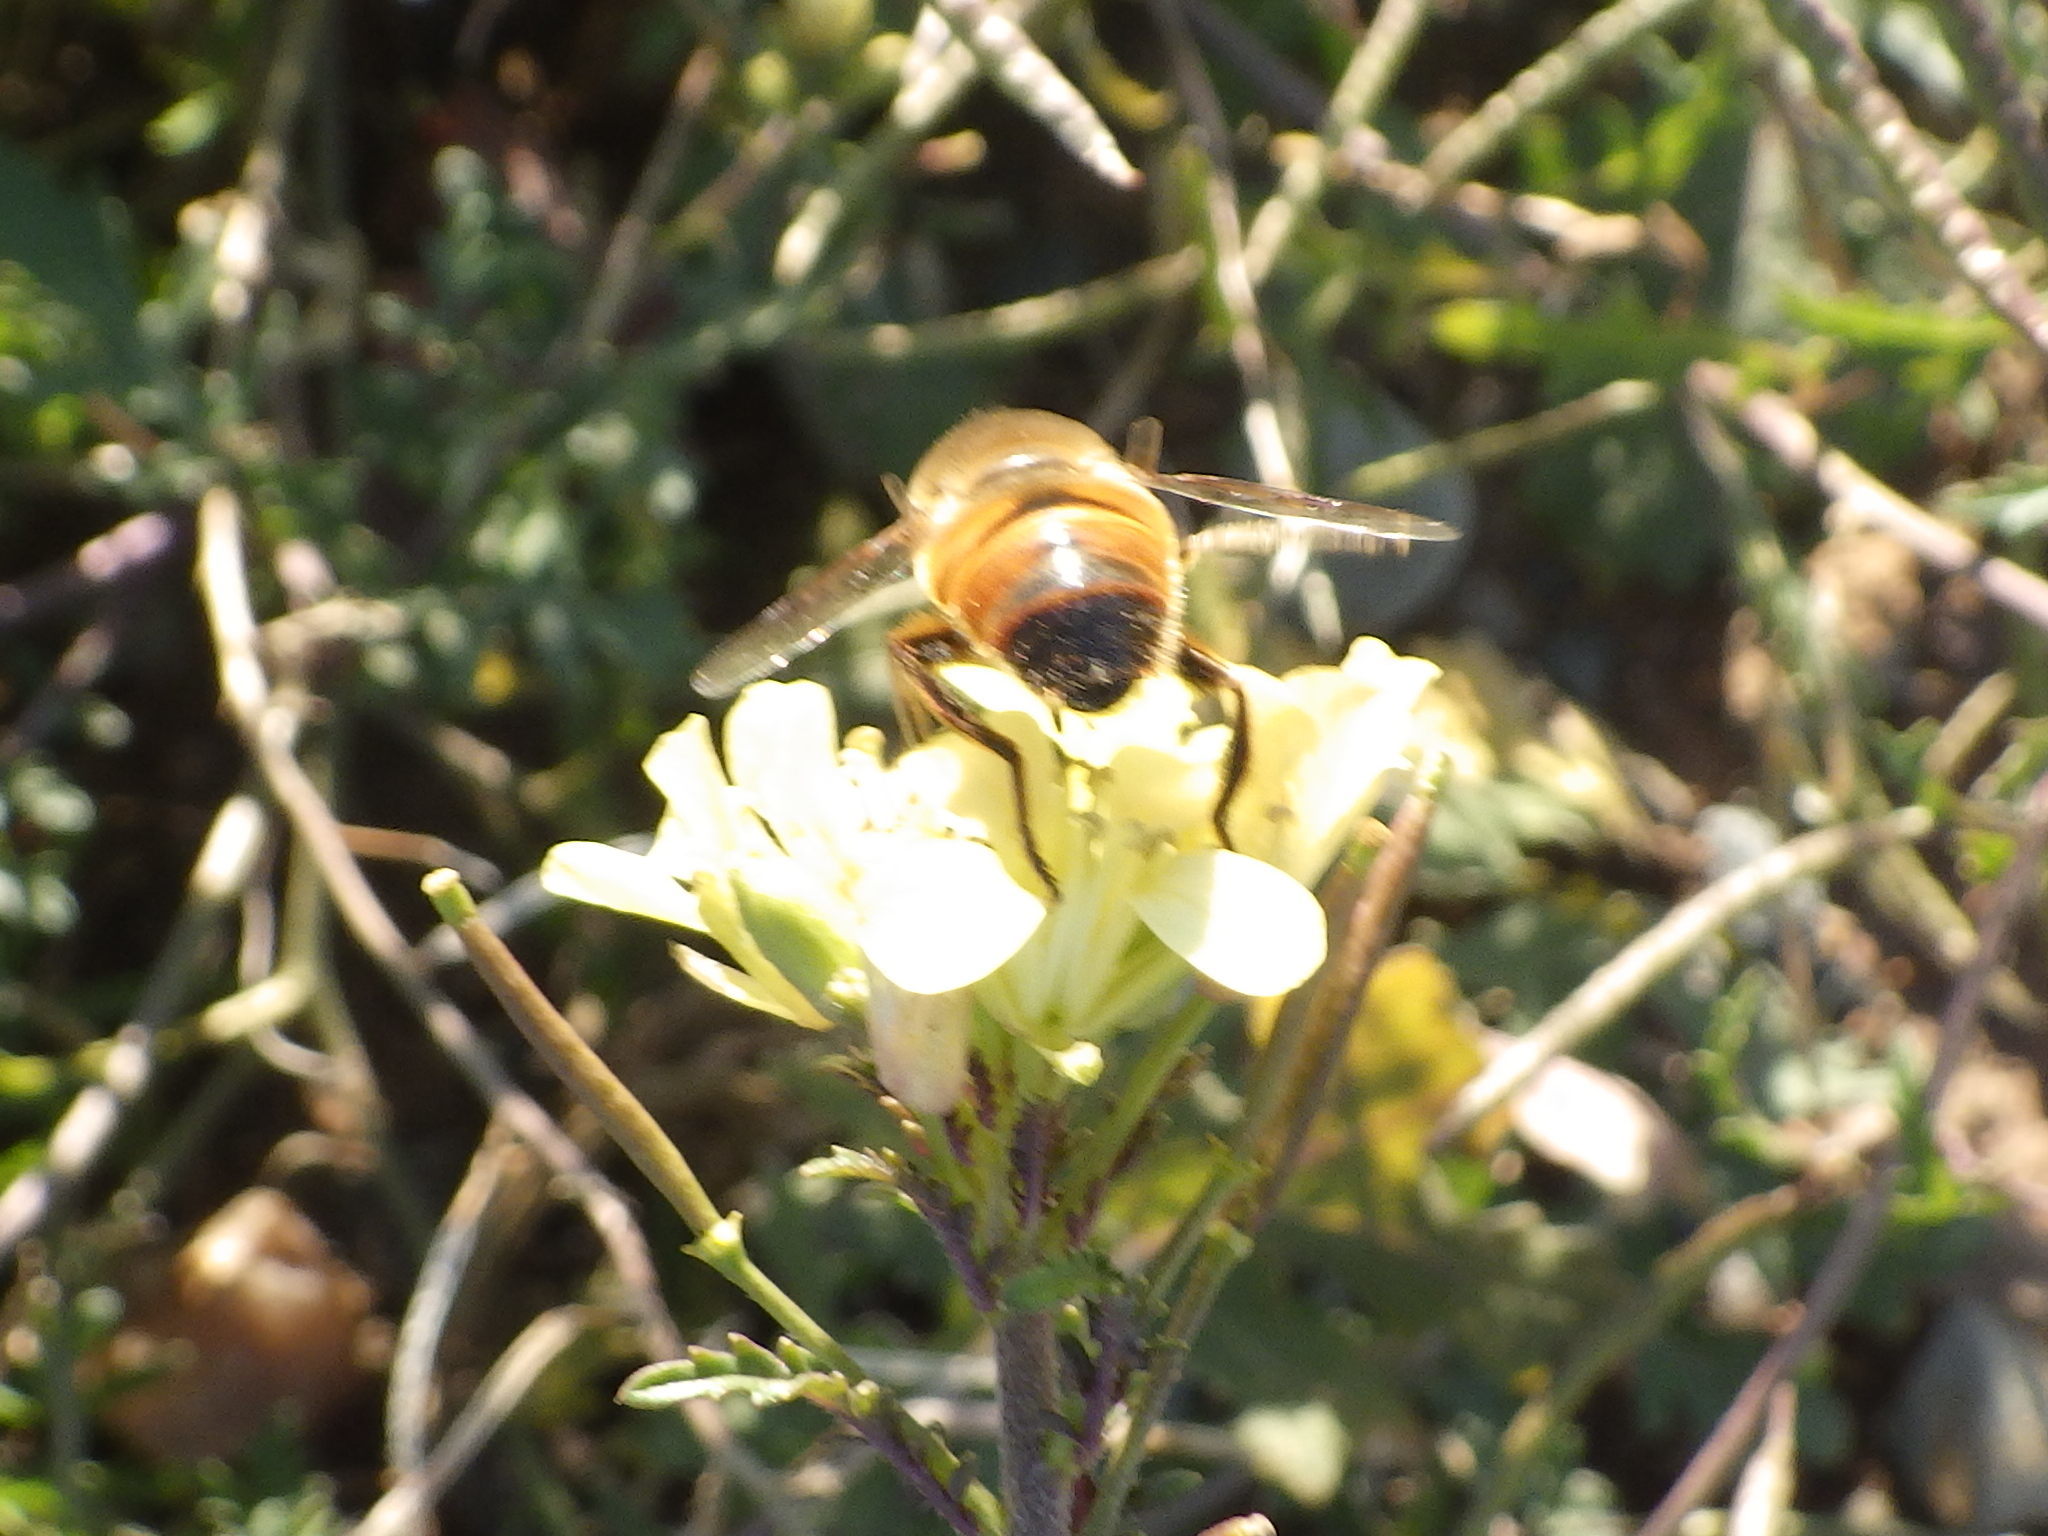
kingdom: Animalia
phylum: Arthropoda
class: Insecta
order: Diptera
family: Syrphidae
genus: Eristalis
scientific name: Eristalis tenax
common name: Drone fly
